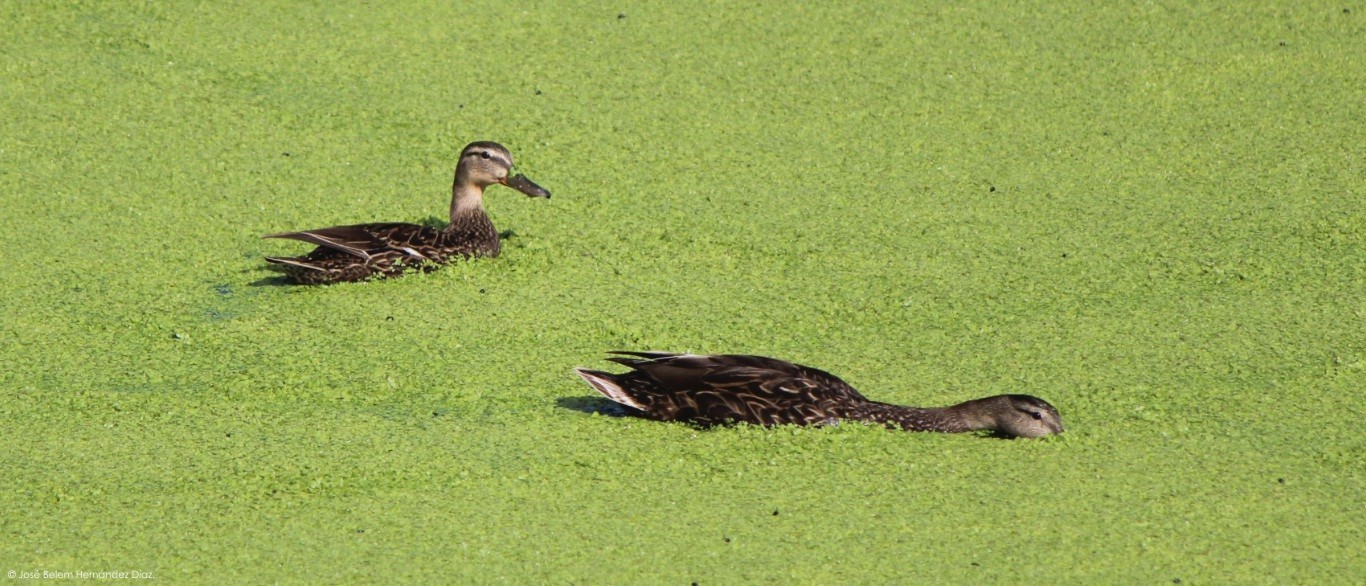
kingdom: Animalia
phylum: Chordata
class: Aves
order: Anseriformes
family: Anatidae
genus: Anas
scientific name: Anas diazi
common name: Mexican duck
